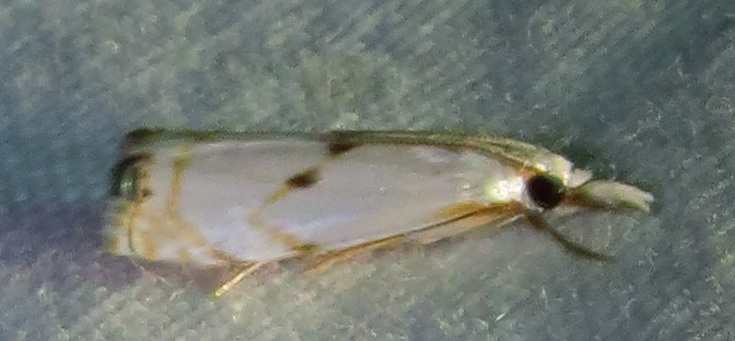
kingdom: Animalia
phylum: Arthropoda
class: Insecta
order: Lepidoptera
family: Crambidae
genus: Microcrambus
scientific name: Microcrambus biguttellus
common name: Gold-stripe grass-veneer moth
